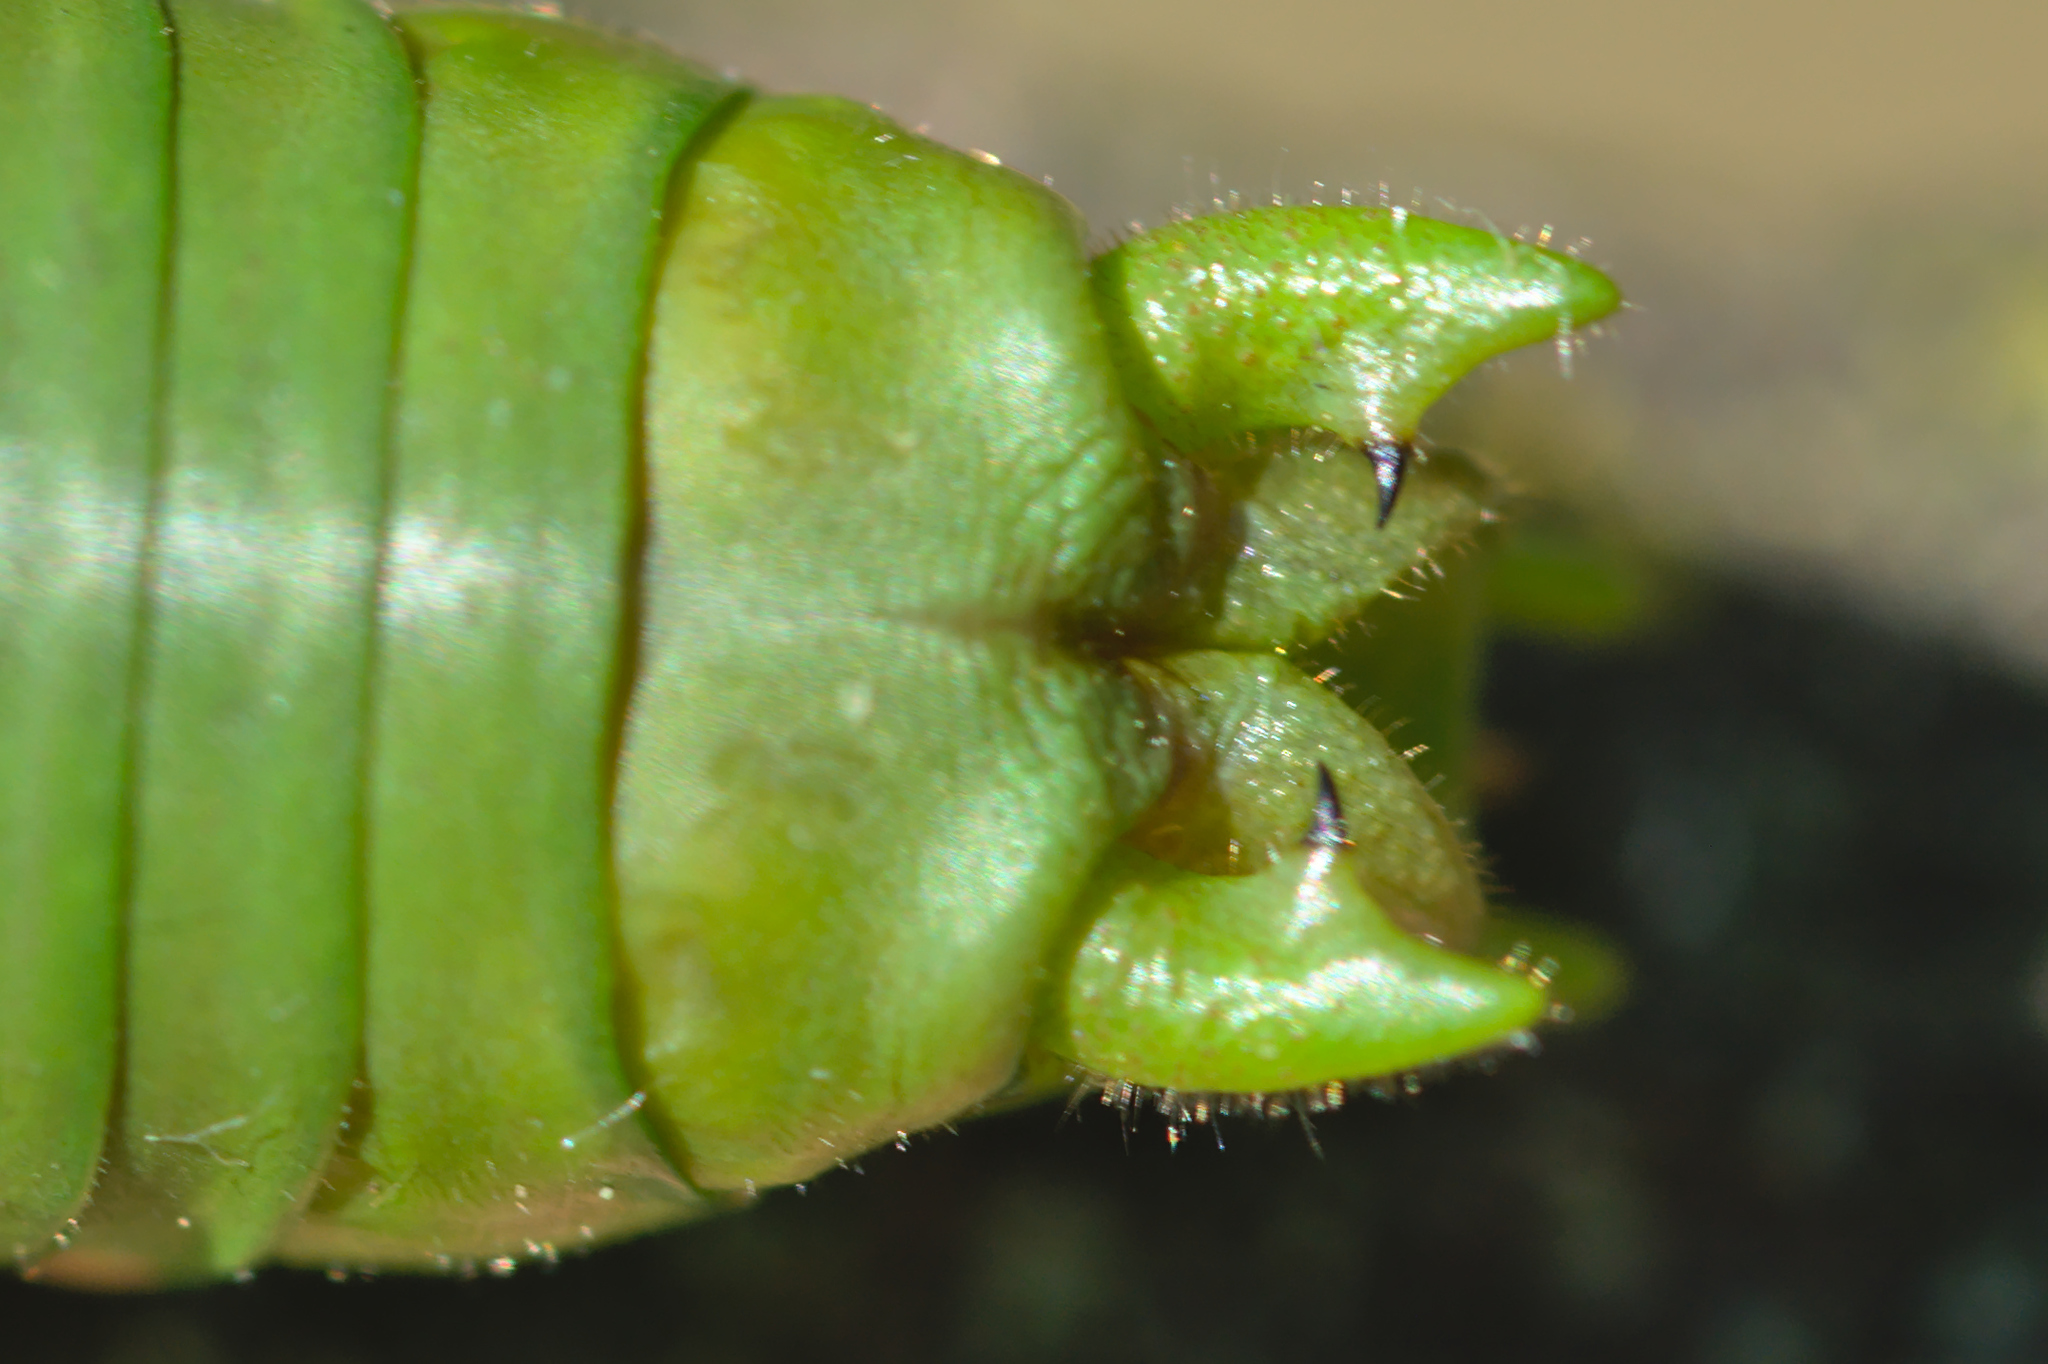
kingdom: Animalia
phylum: Arthropoda
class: Insecta
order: Orthoptera
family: Tettigoniidae
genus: Uromenus
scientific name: Uromenus rugosicollis
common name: Rough saddle bush-cricket
